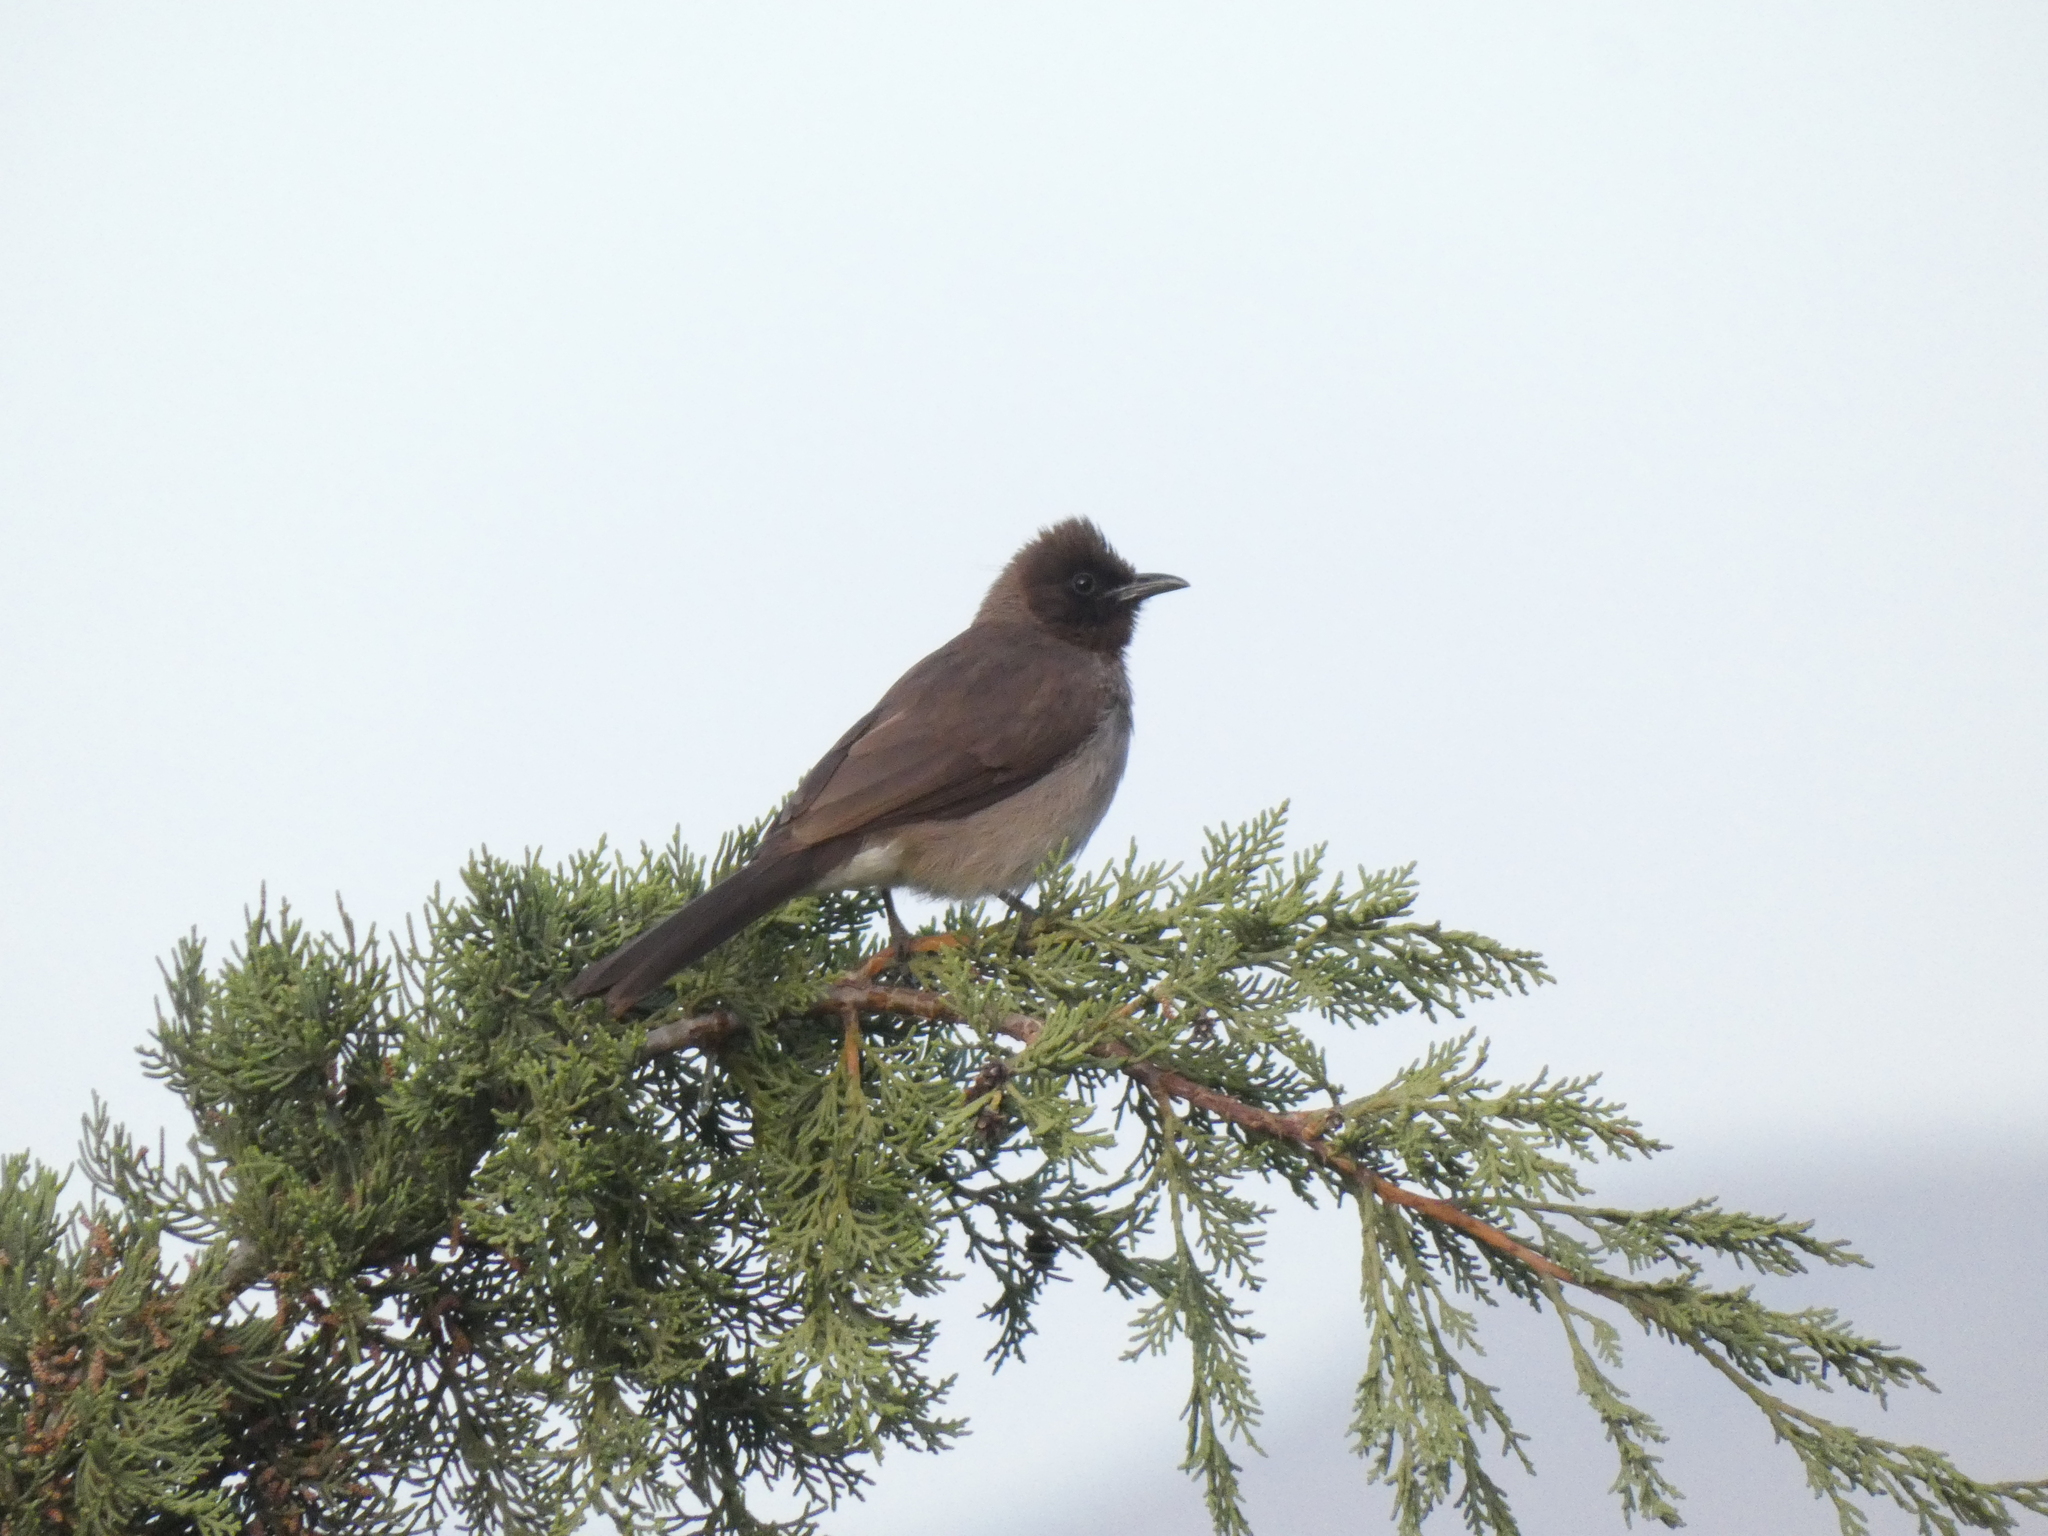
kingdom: Animalia
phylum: Chordata
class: Aves
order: Passeriformes
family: Pycnonotidae
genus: Pycnonotus
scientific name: Pycnonotus barbatus
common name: Common bulbul
